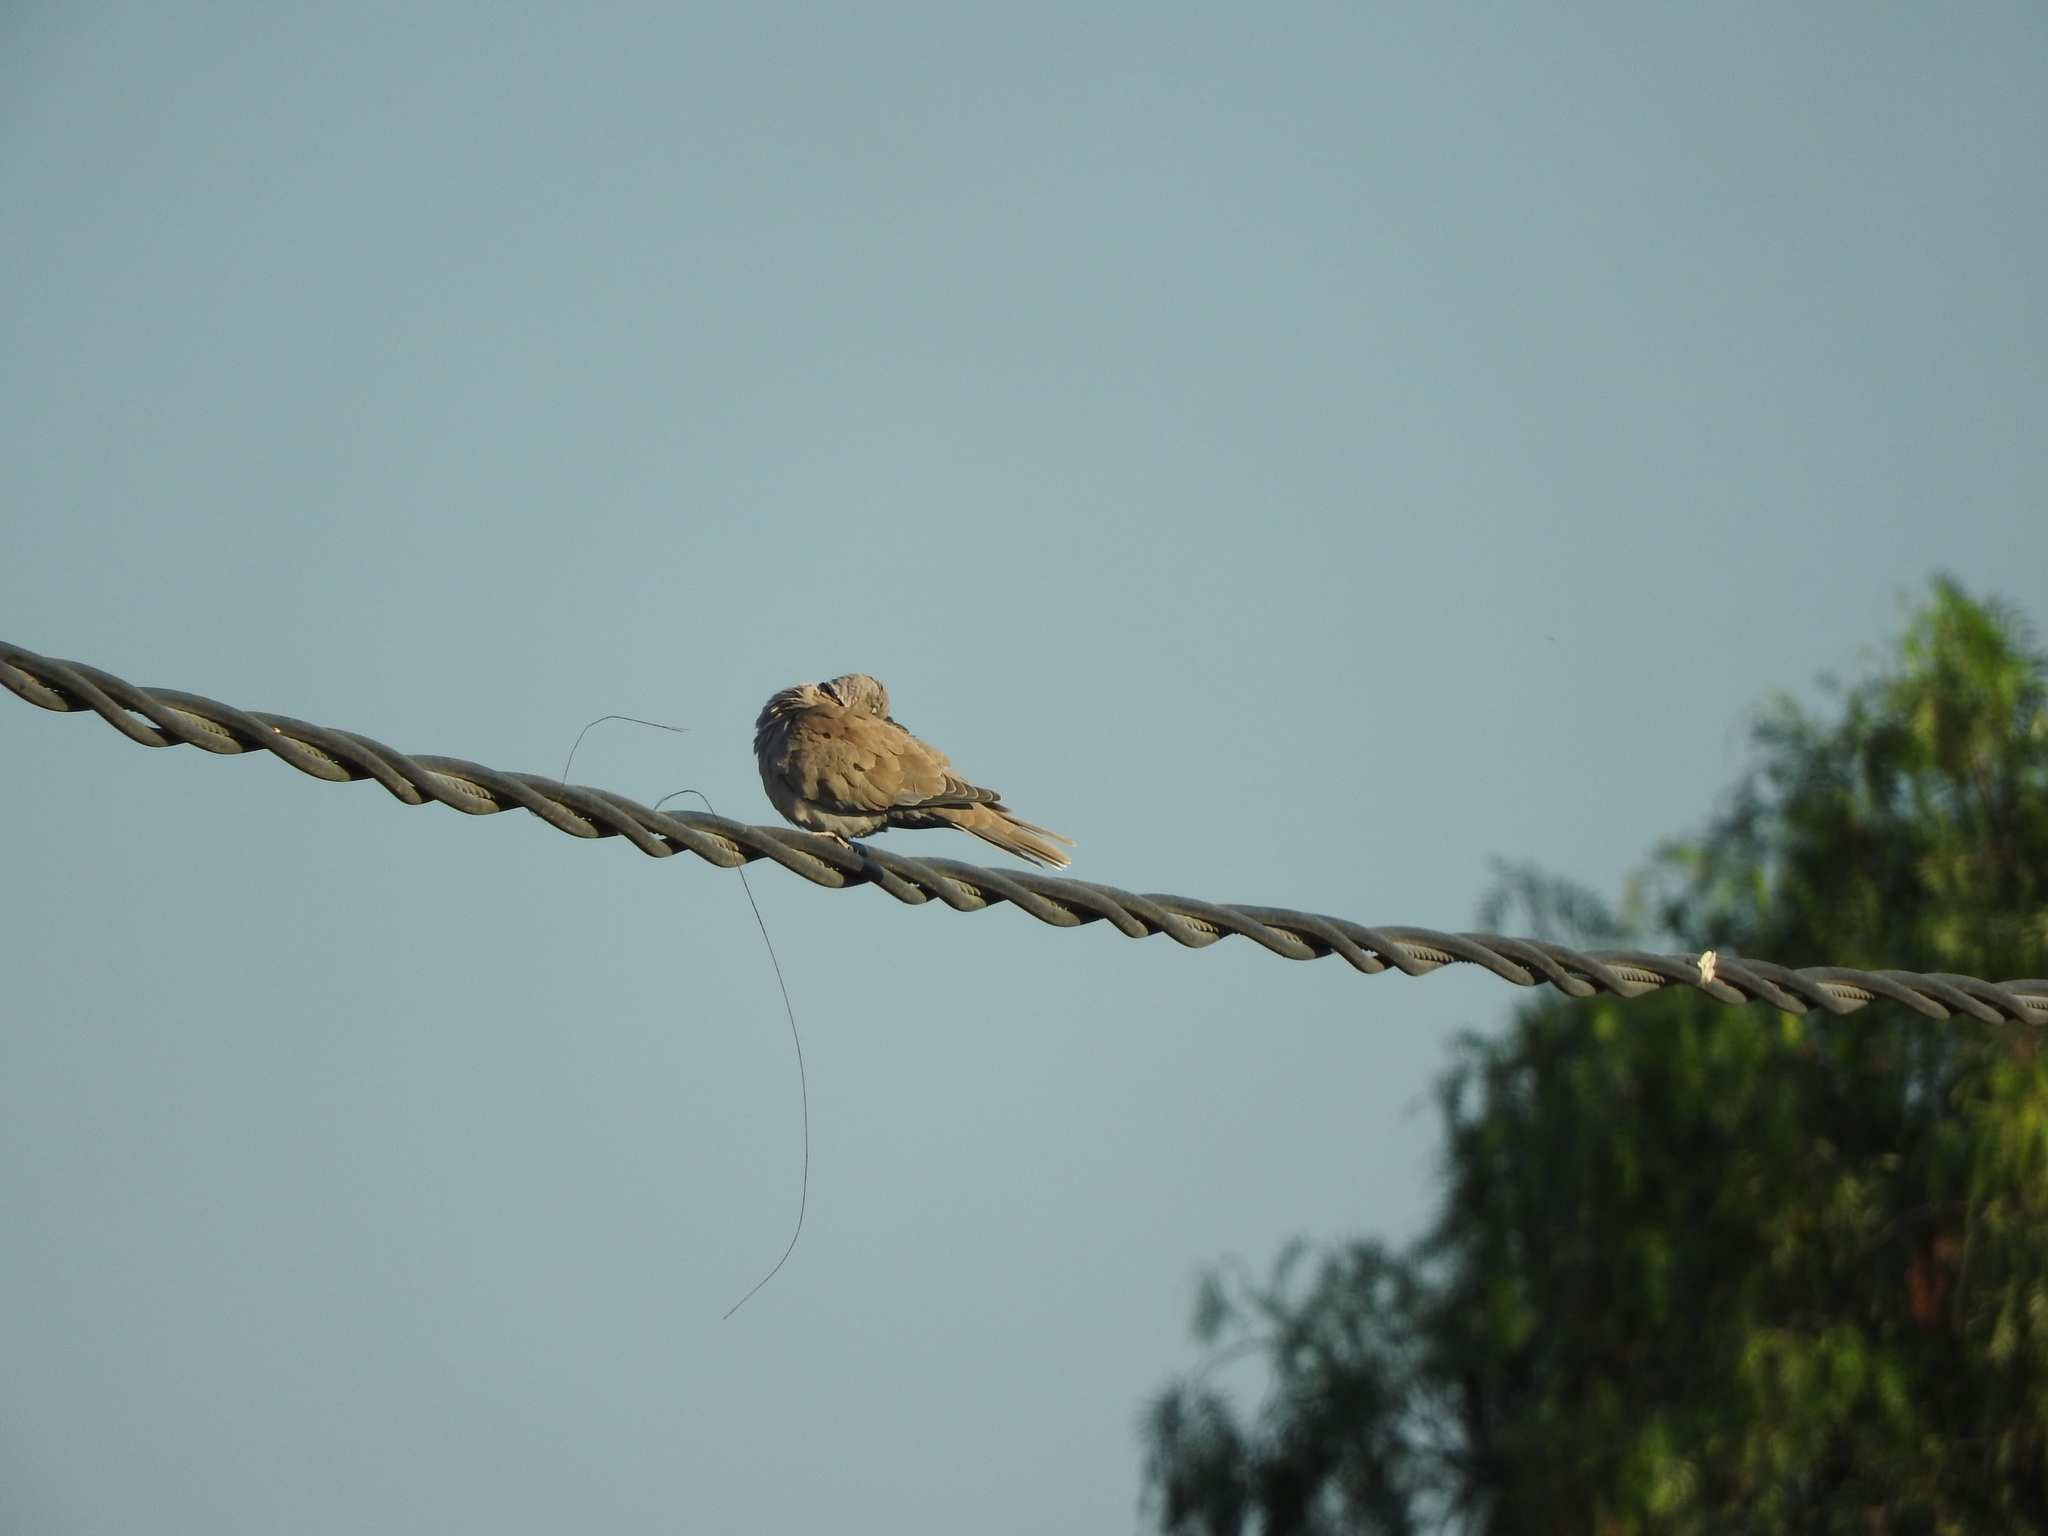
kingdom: Animalia
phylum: Chordata
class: Aves
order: Columbiformes
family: Columbidae
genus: Streptopelia
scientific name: Streptopelia decaocto
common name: Eurasian collared dove
